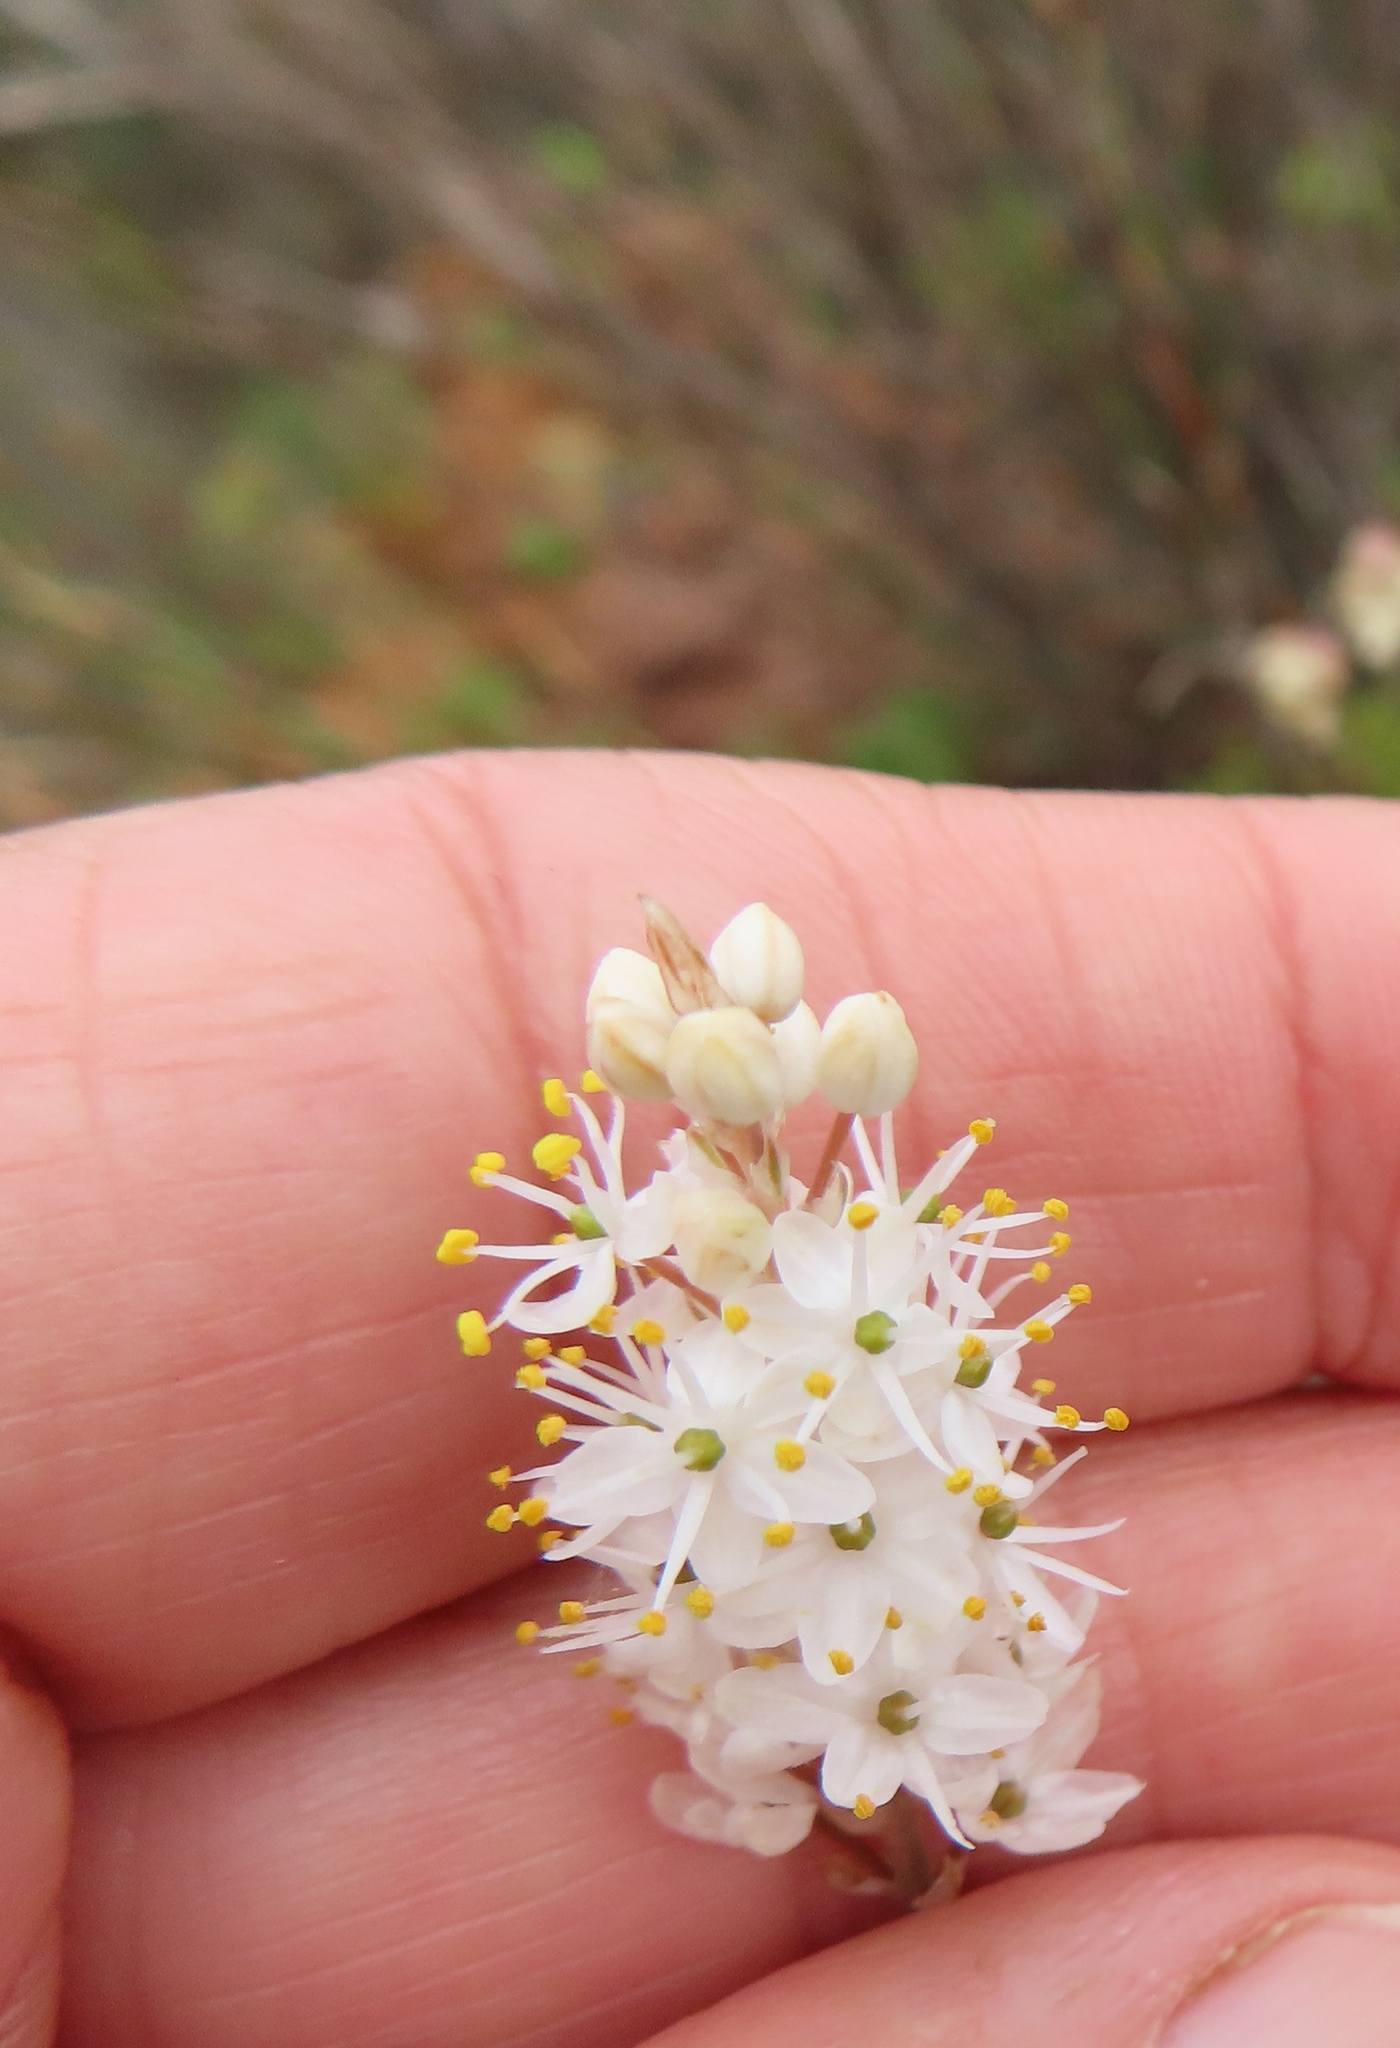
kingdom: Plantae
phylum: Tracheophyta
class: Liliopsida
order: Asparagales
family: Asphodelaceae
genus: Bulbinella
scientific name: Bulbinella trinervis
